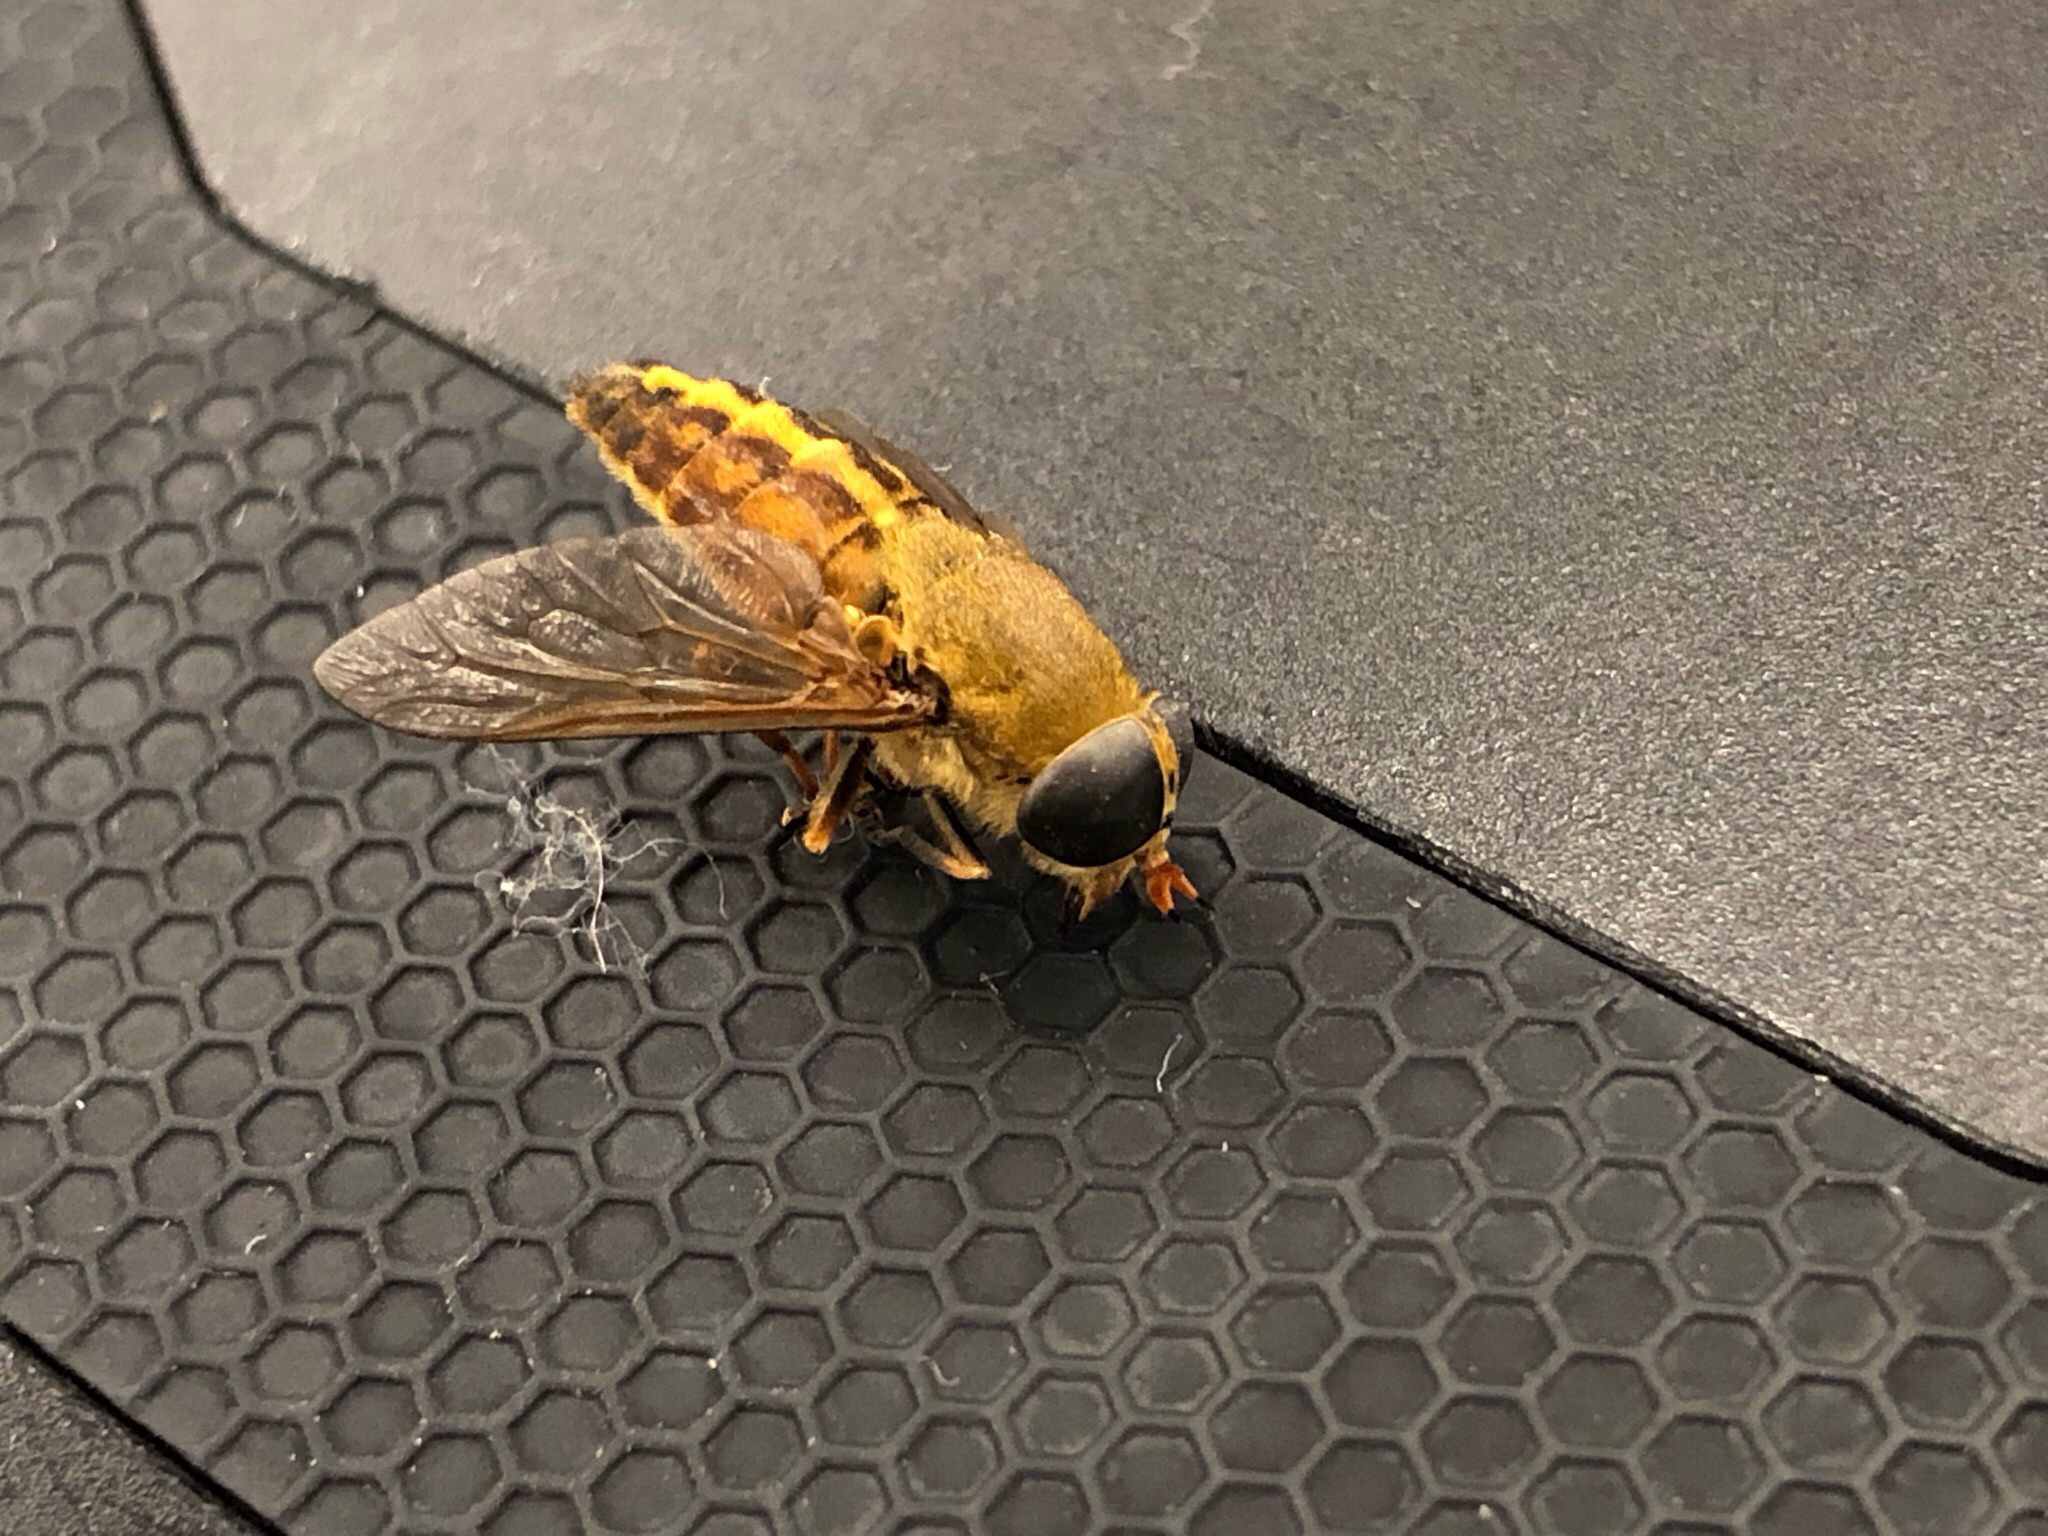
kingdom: Animalia
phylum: Arthropoda
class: Insecta
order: Diptera
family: Tabanidae
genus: Tabanus
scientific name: Tabanus fulvulus
